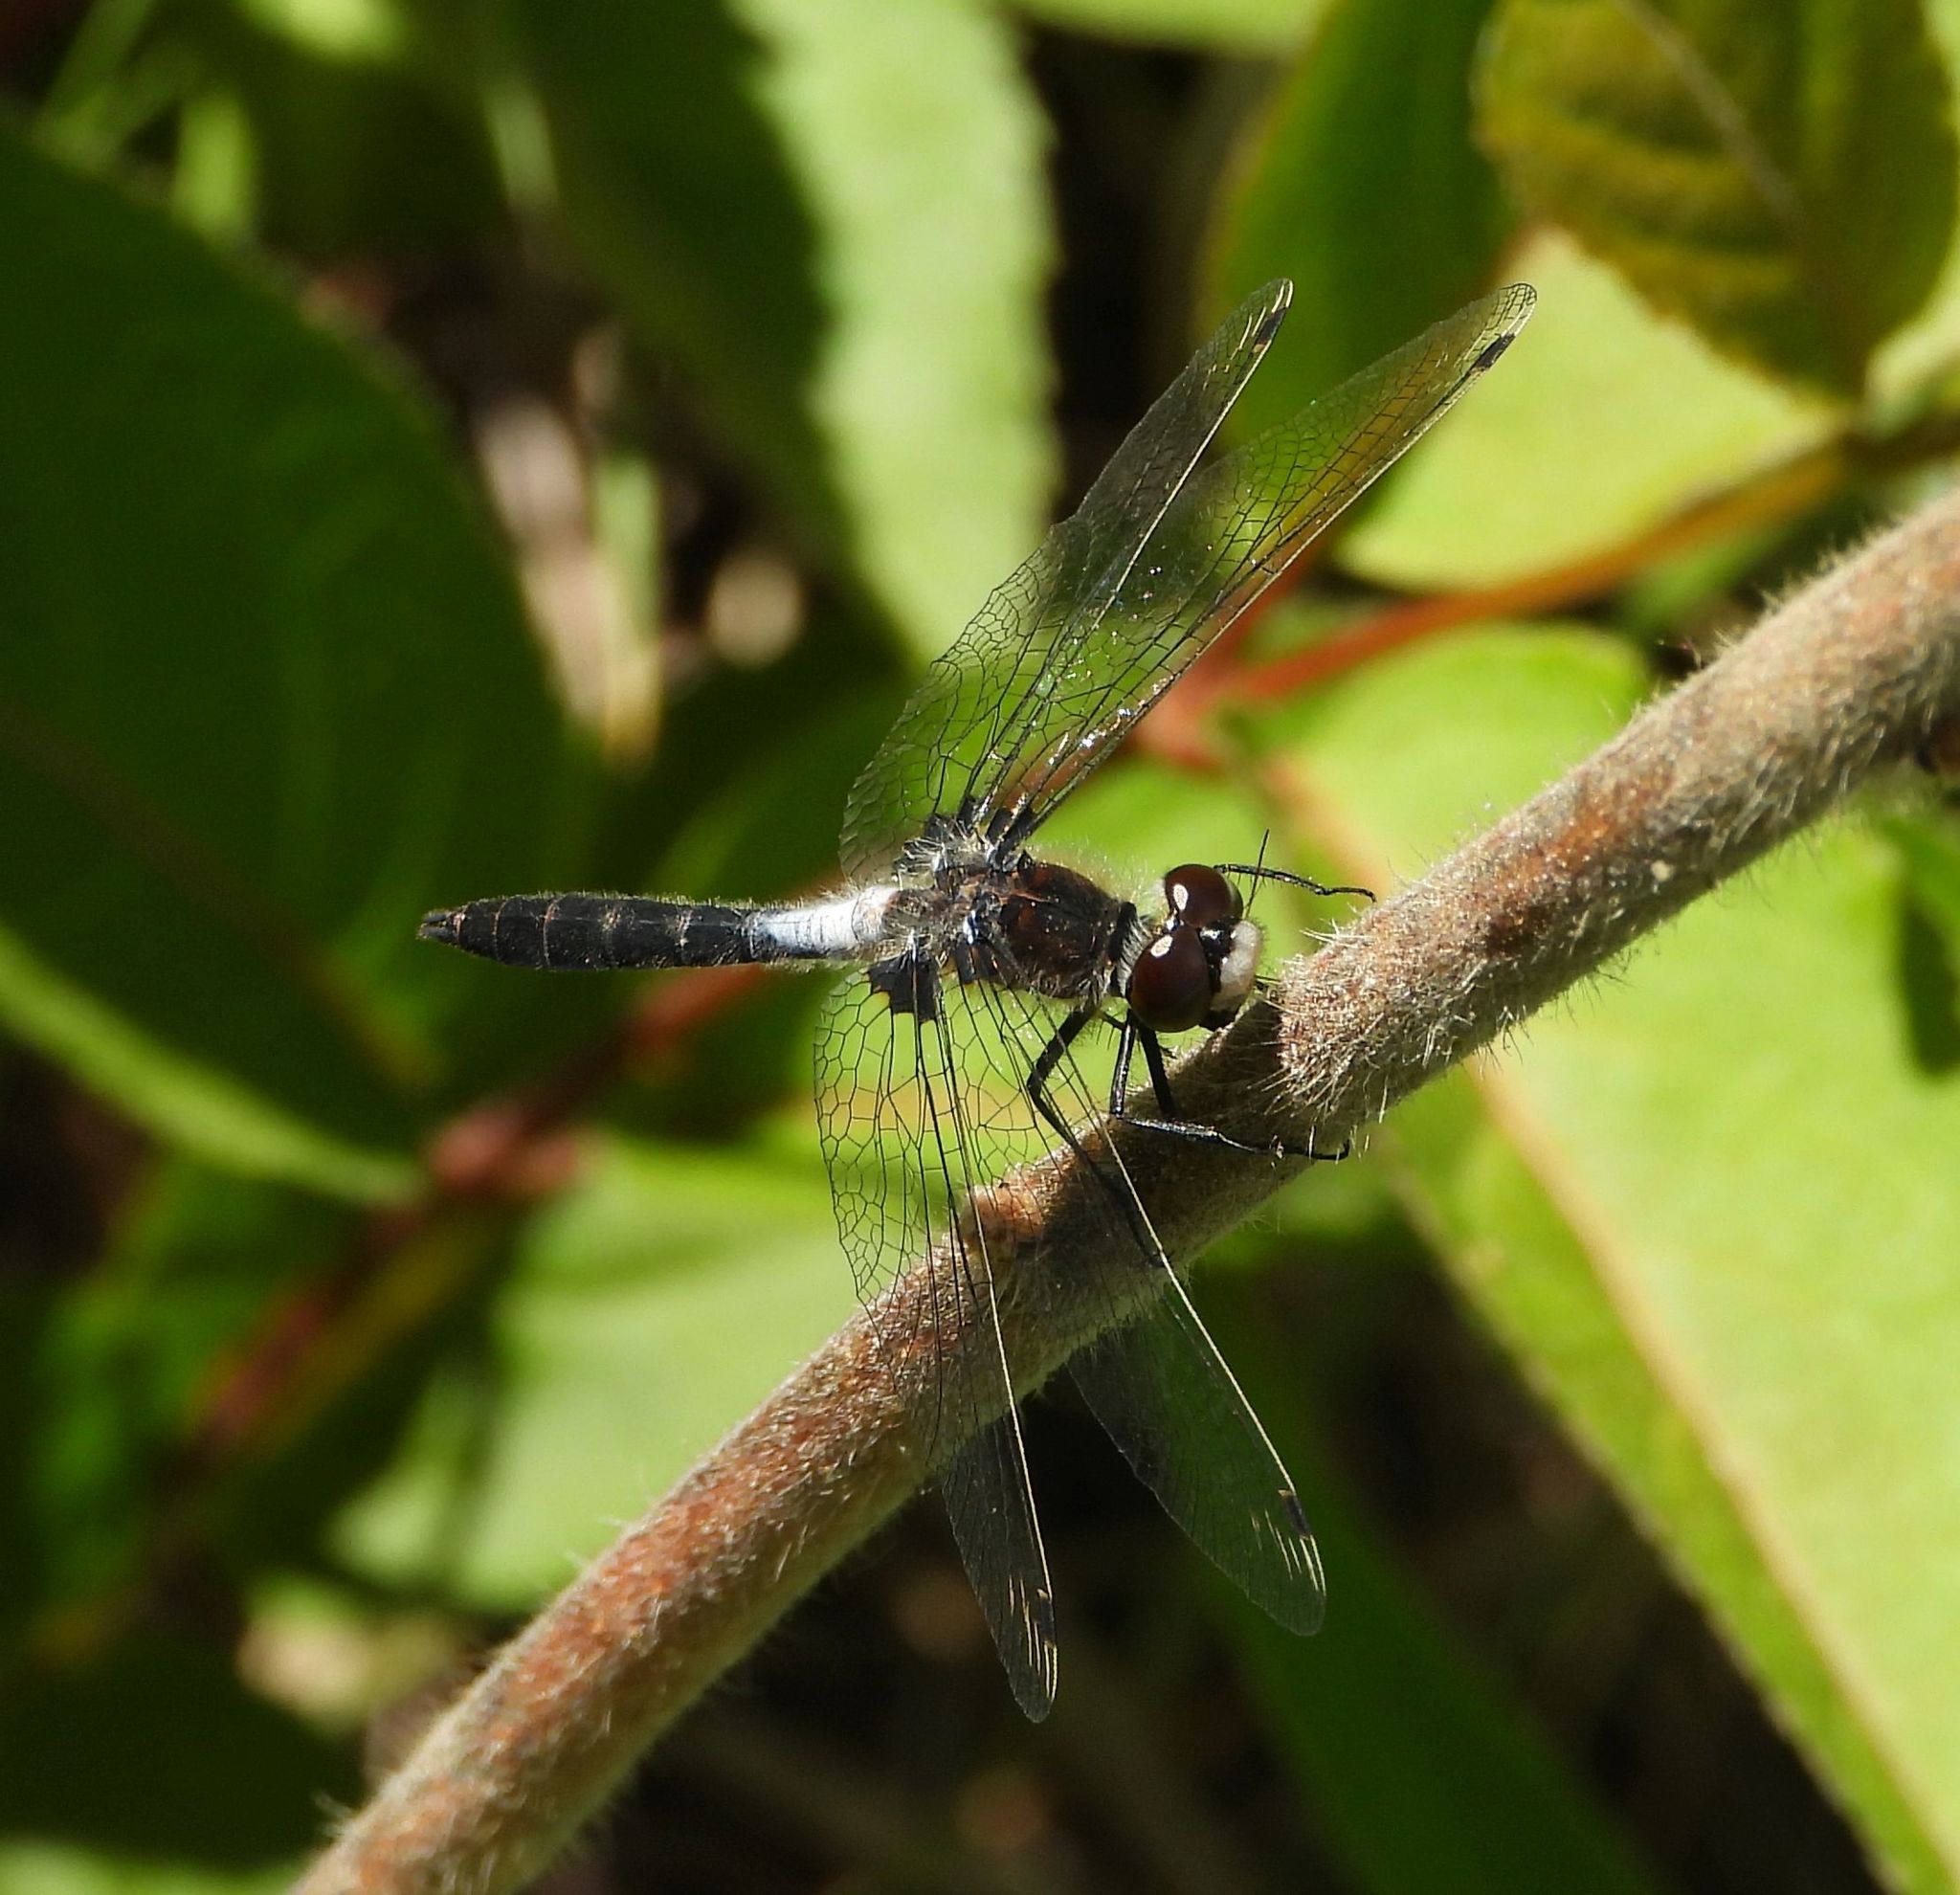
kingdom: Animalia
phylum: Arthropoda
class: Insecta
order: Odonata
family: Libellulidae
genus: Leucorrhinia
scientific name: Leucorrhinia frigida
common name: Frosted whiteface
